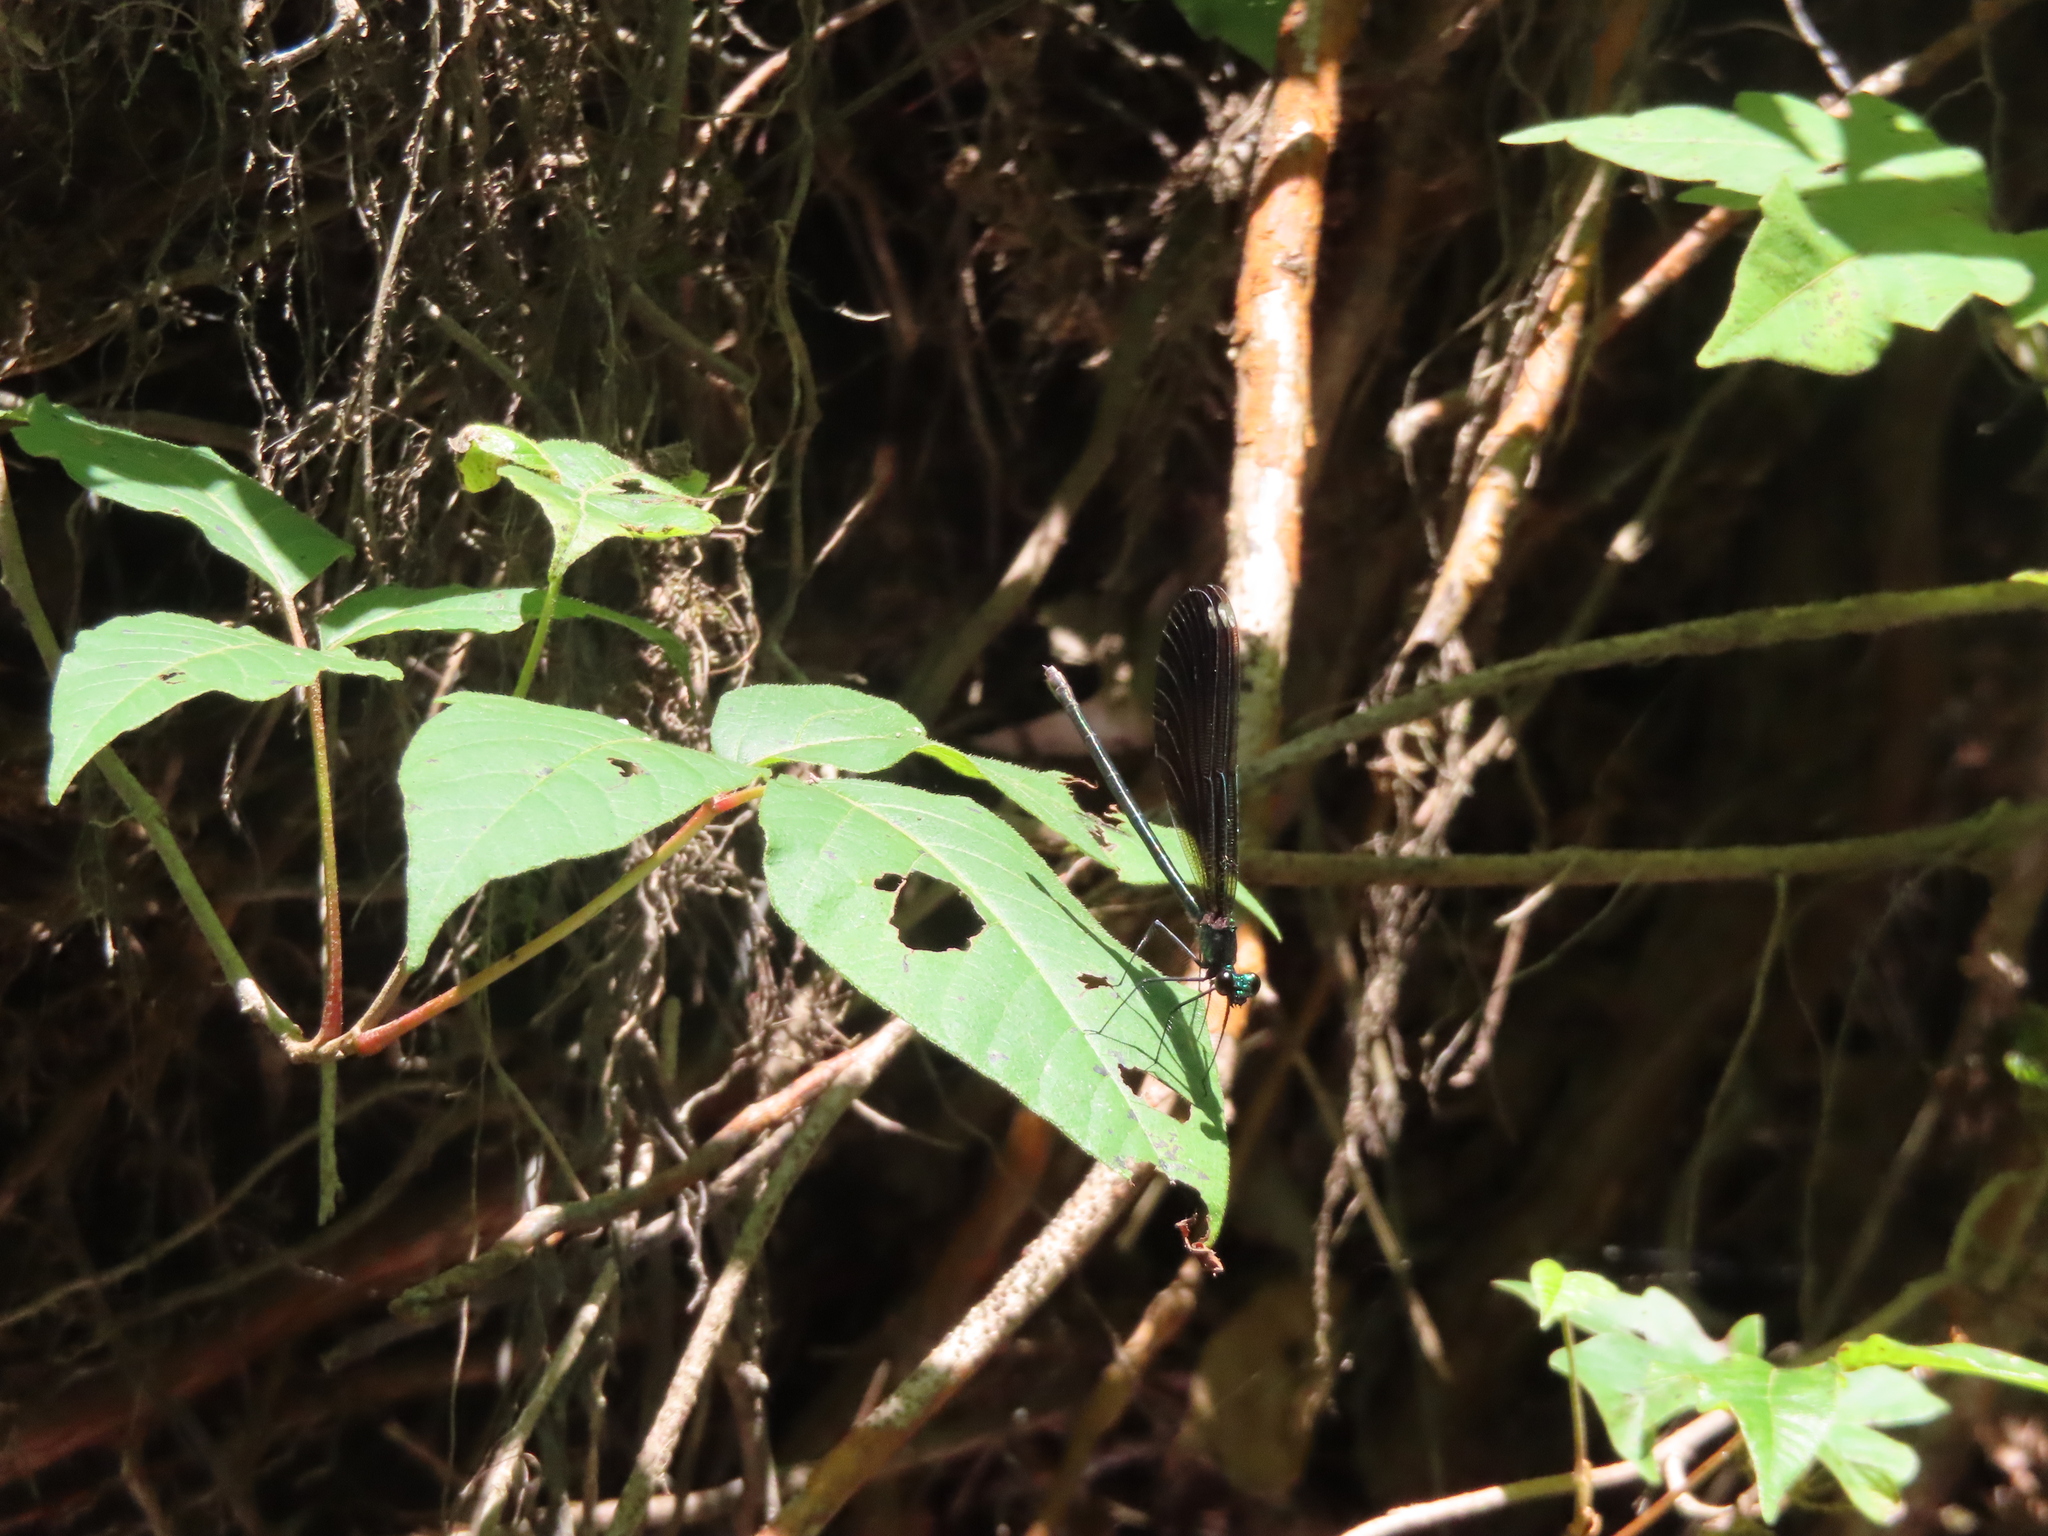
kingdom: Animalia
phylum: Arthropoda
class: Insecta
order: Odonata
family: Calopterygidae
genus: Calopteryx
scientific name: Calopteryx maculata
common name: Ebony jewelwing
